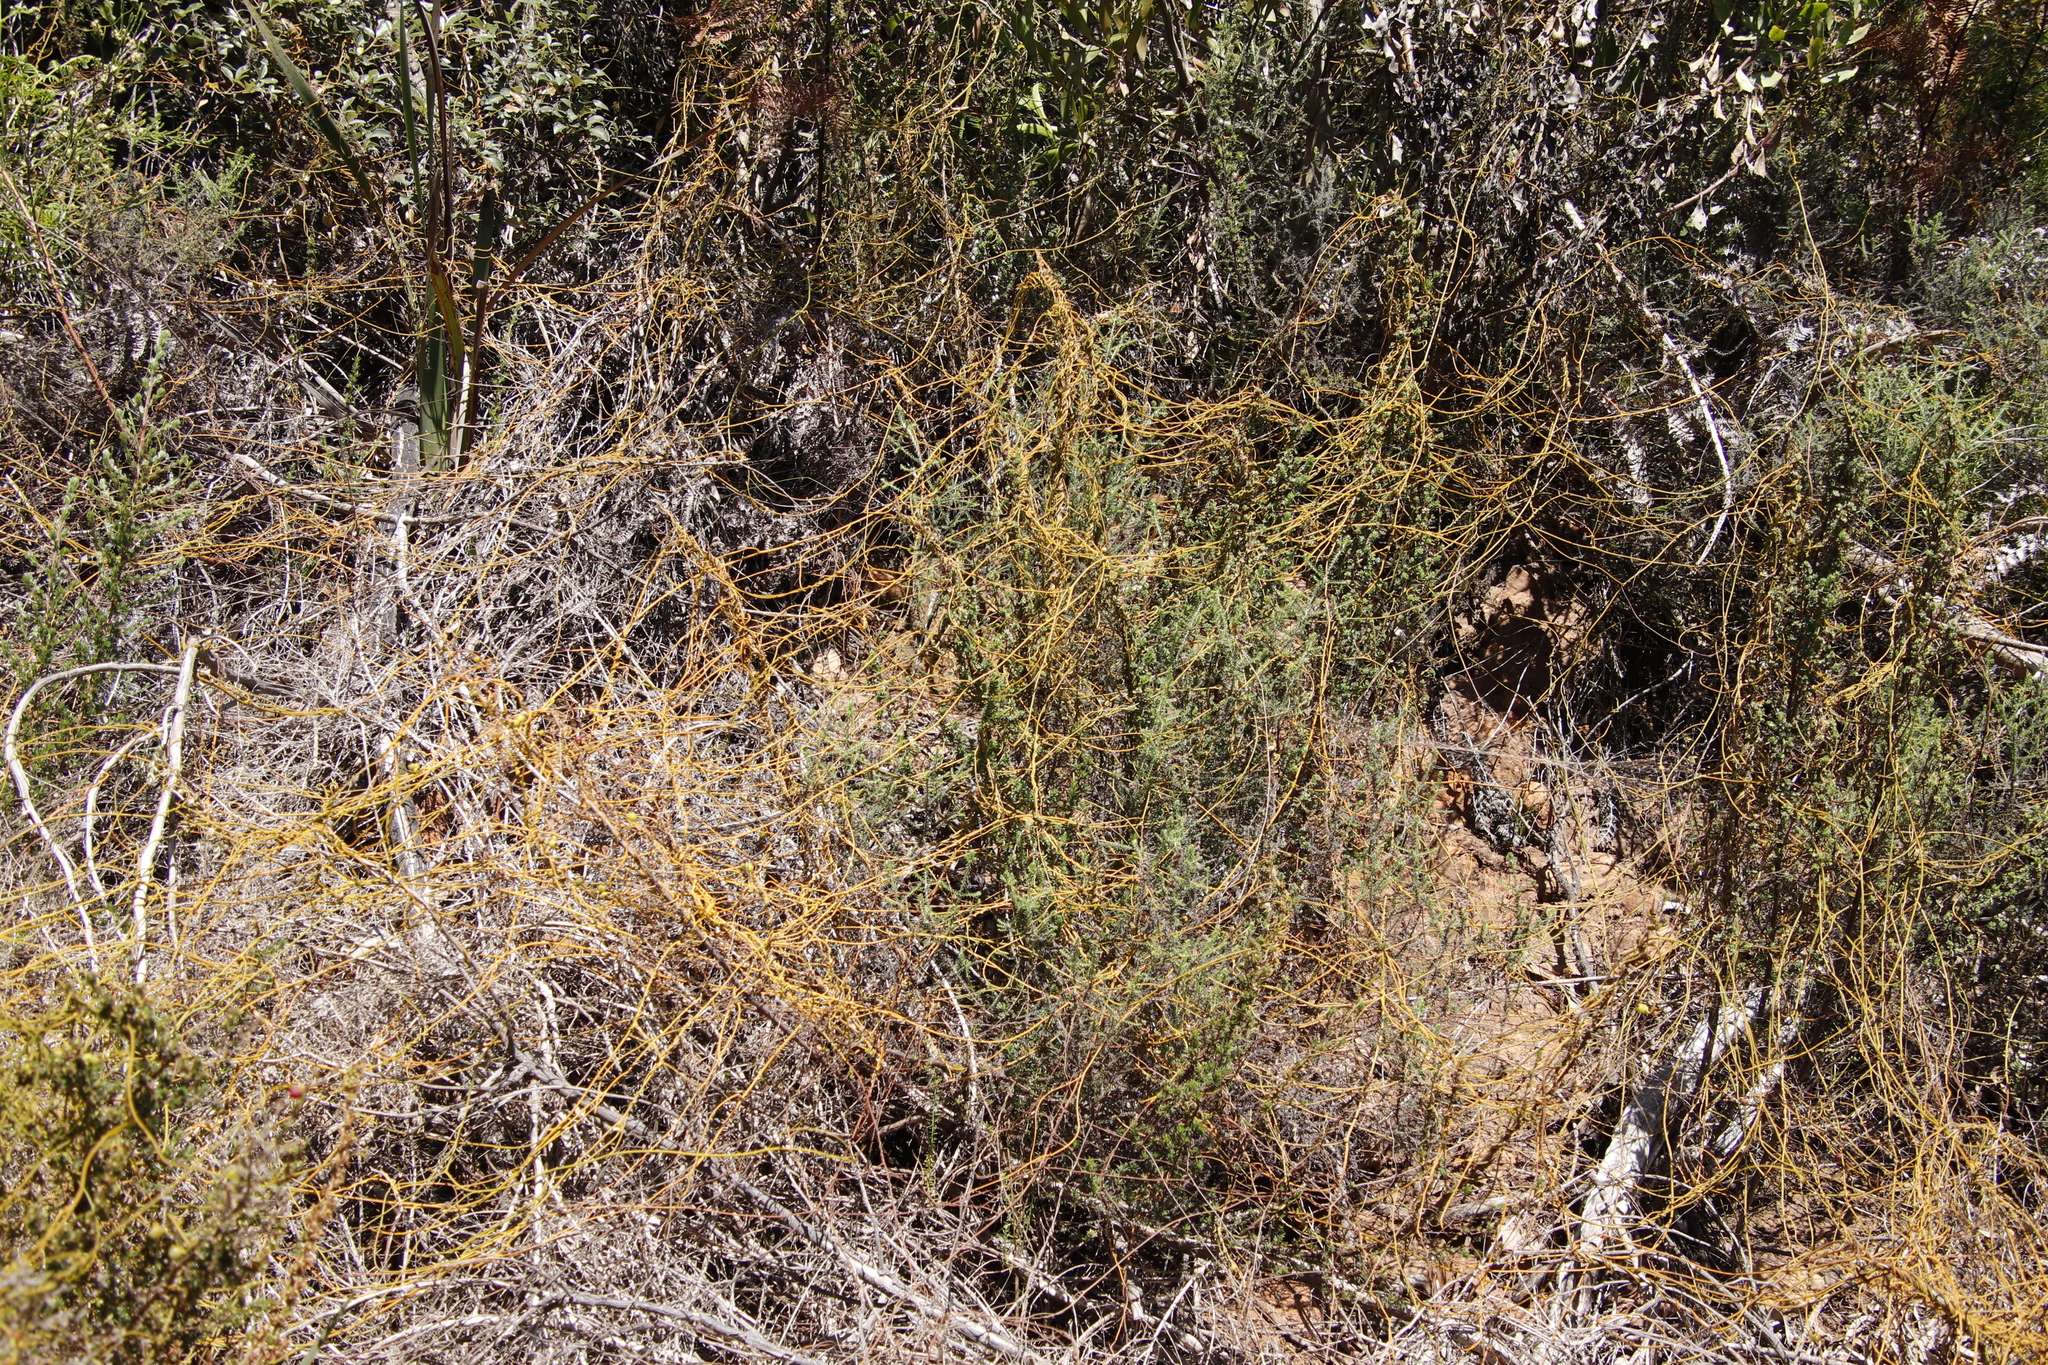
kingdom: Plantae
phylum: Tracheophyta
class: Magnoliopsida
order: Laurales
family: Lauraceae
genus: Cassytha
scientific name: Cassytha ciliolata
